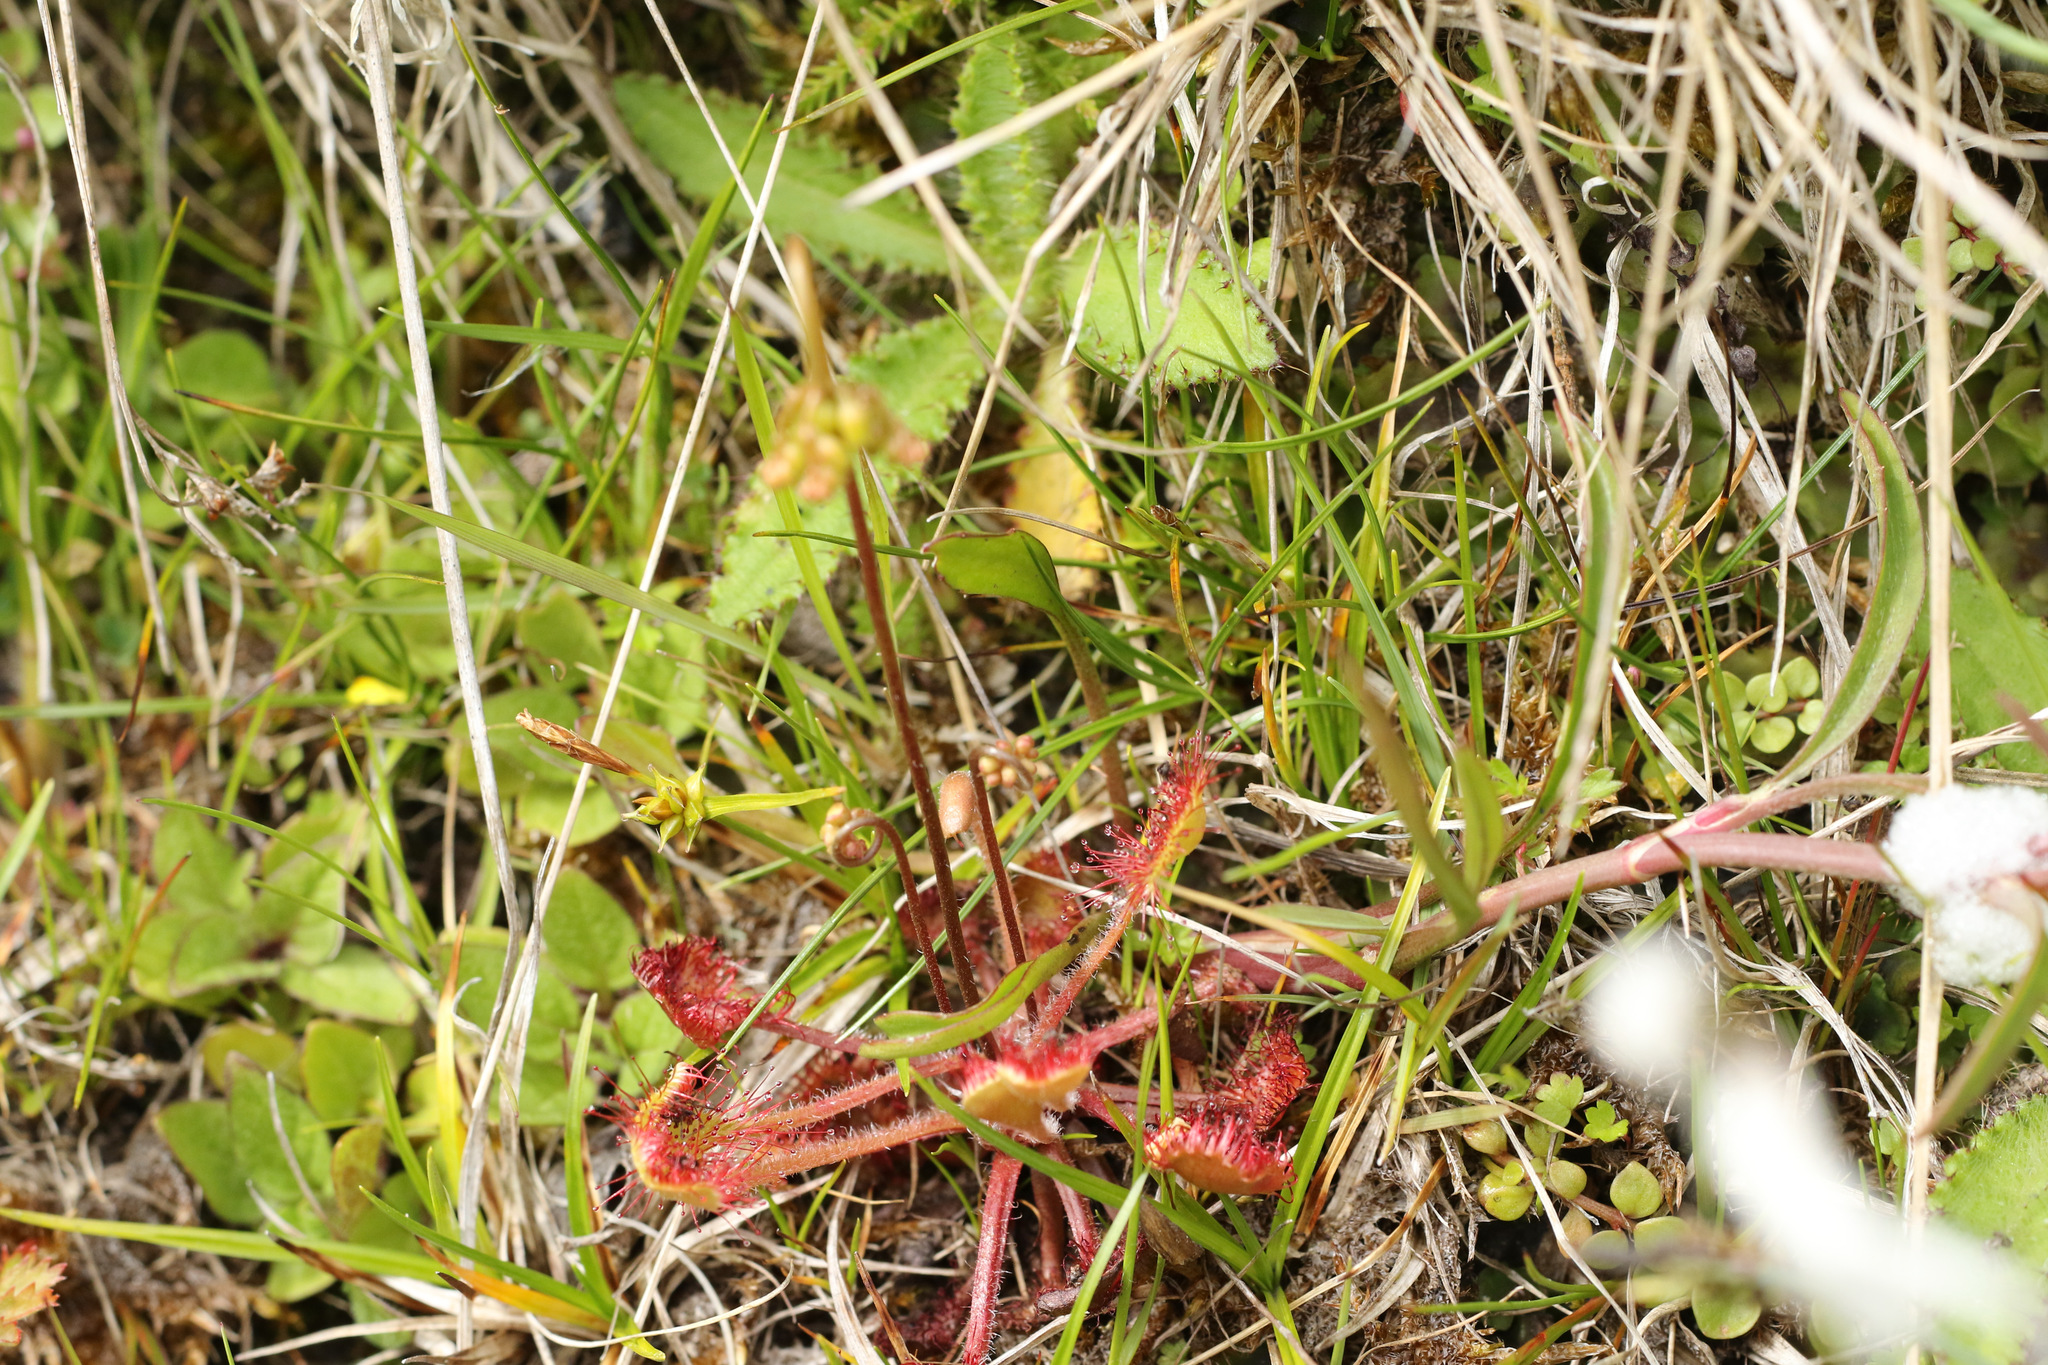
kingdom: Plantae
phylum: Tracheophyta
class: Magnoliopsida
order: Caryophyllales
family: Droseraceae
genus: Drosera
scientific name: Drosera rotundifolia
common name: Round-leaved sundew
